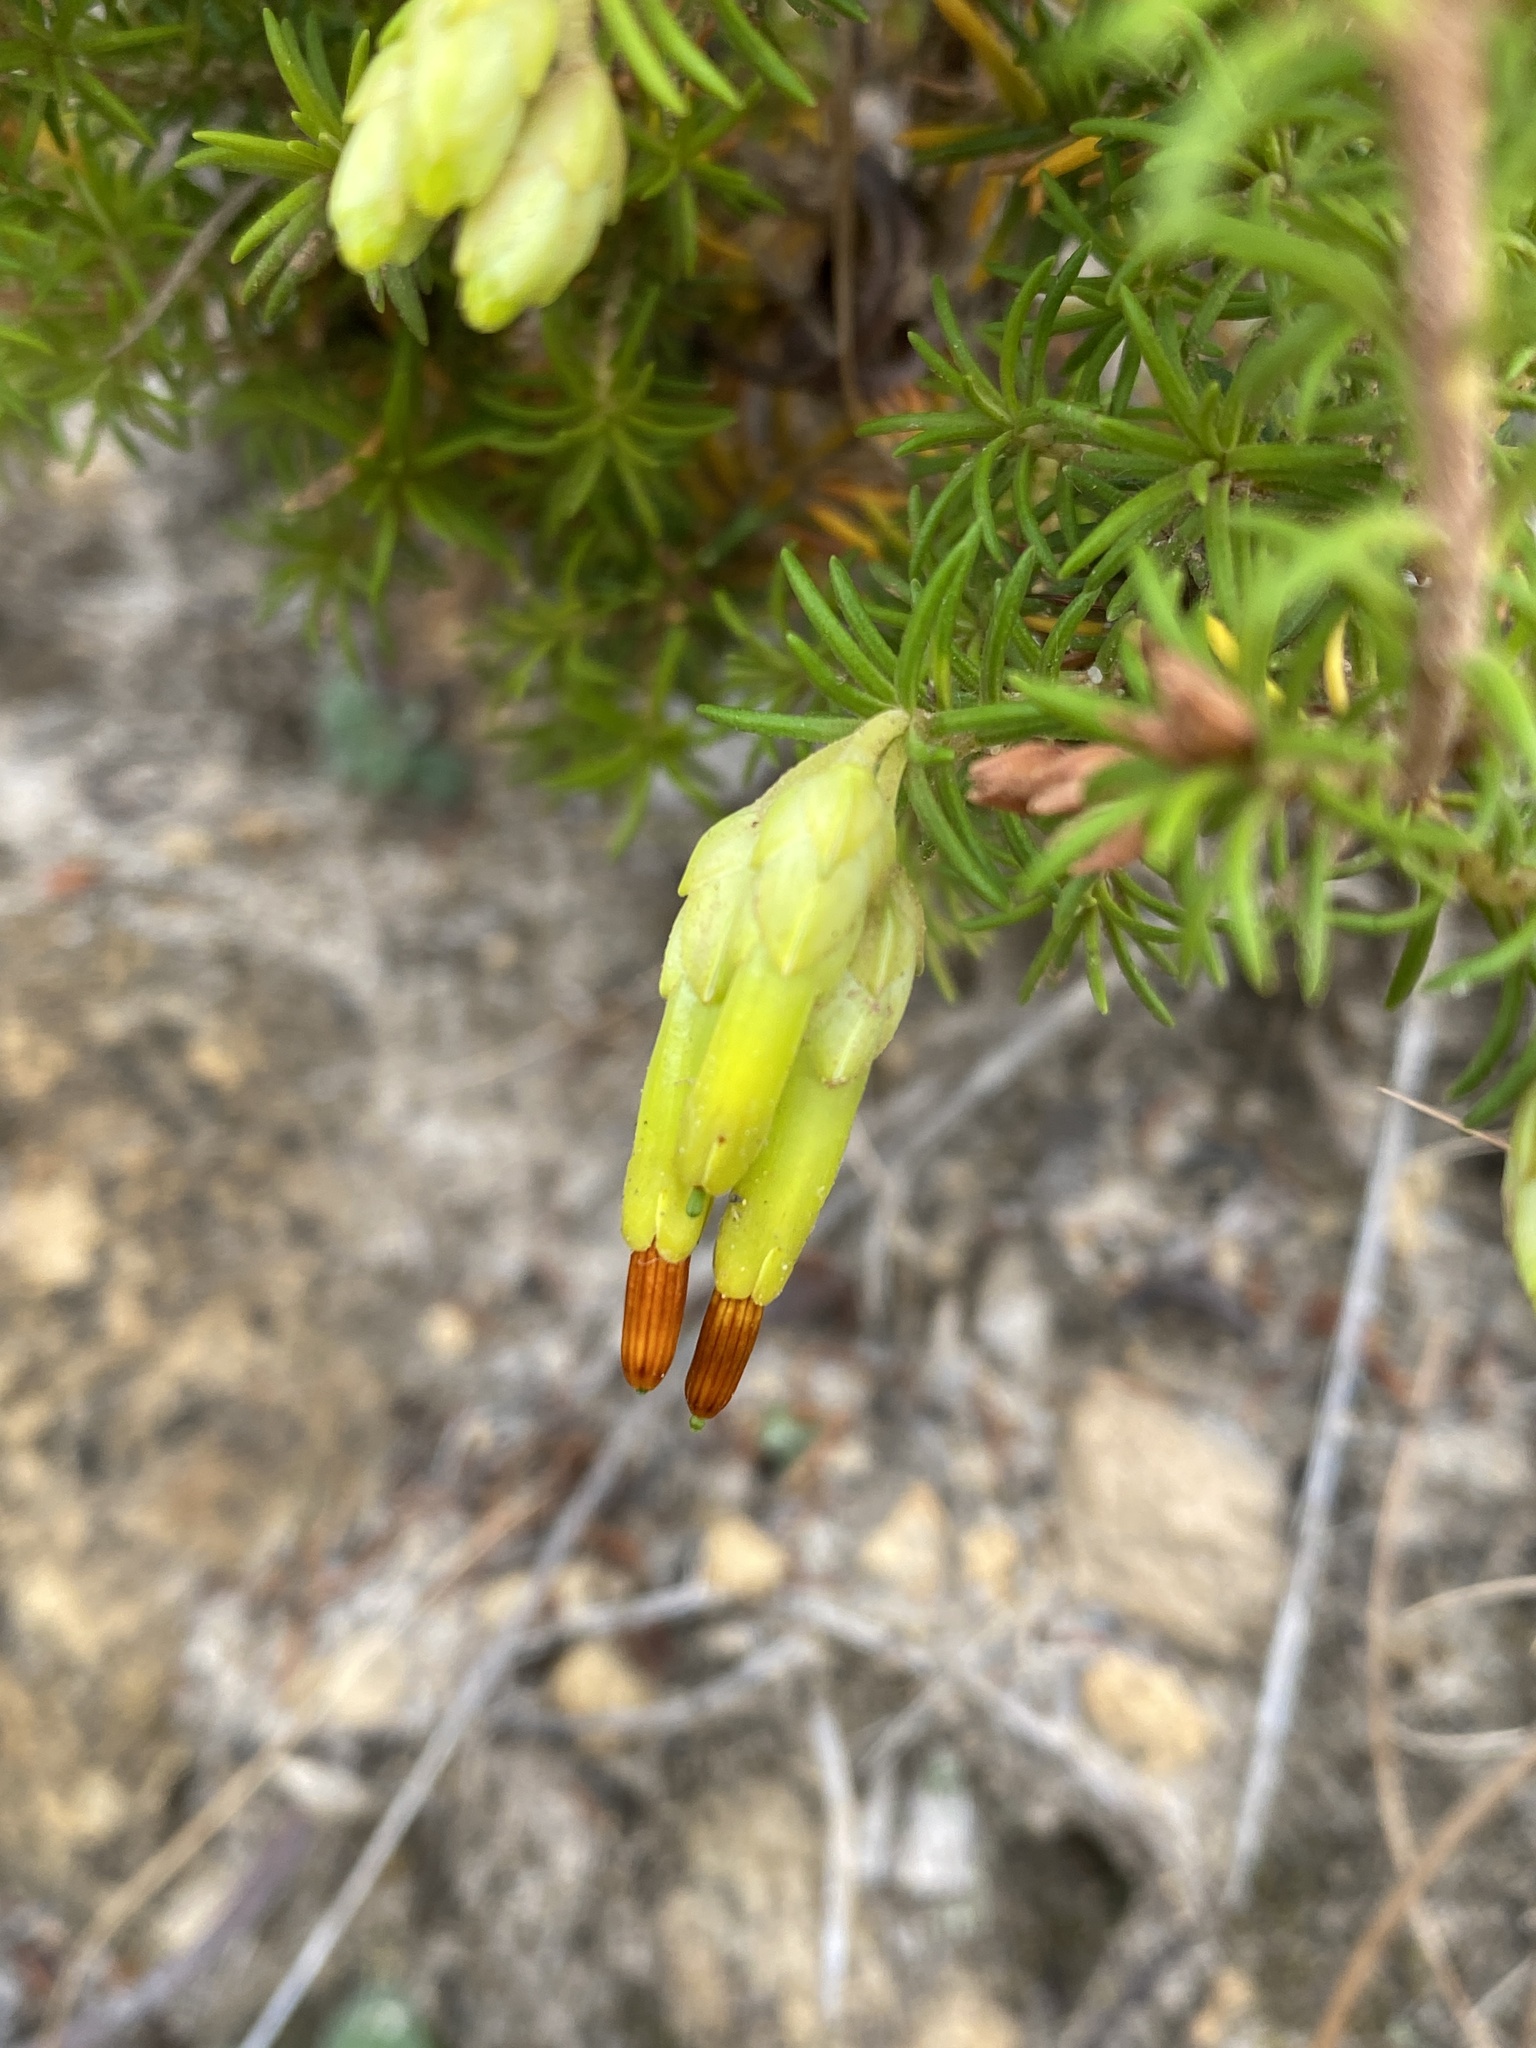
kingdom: Plantae
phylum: Tracheophyta
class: Magnoliopsida
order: Ericales
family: Ericaceae
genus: Erica
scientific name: Erica coccinea
